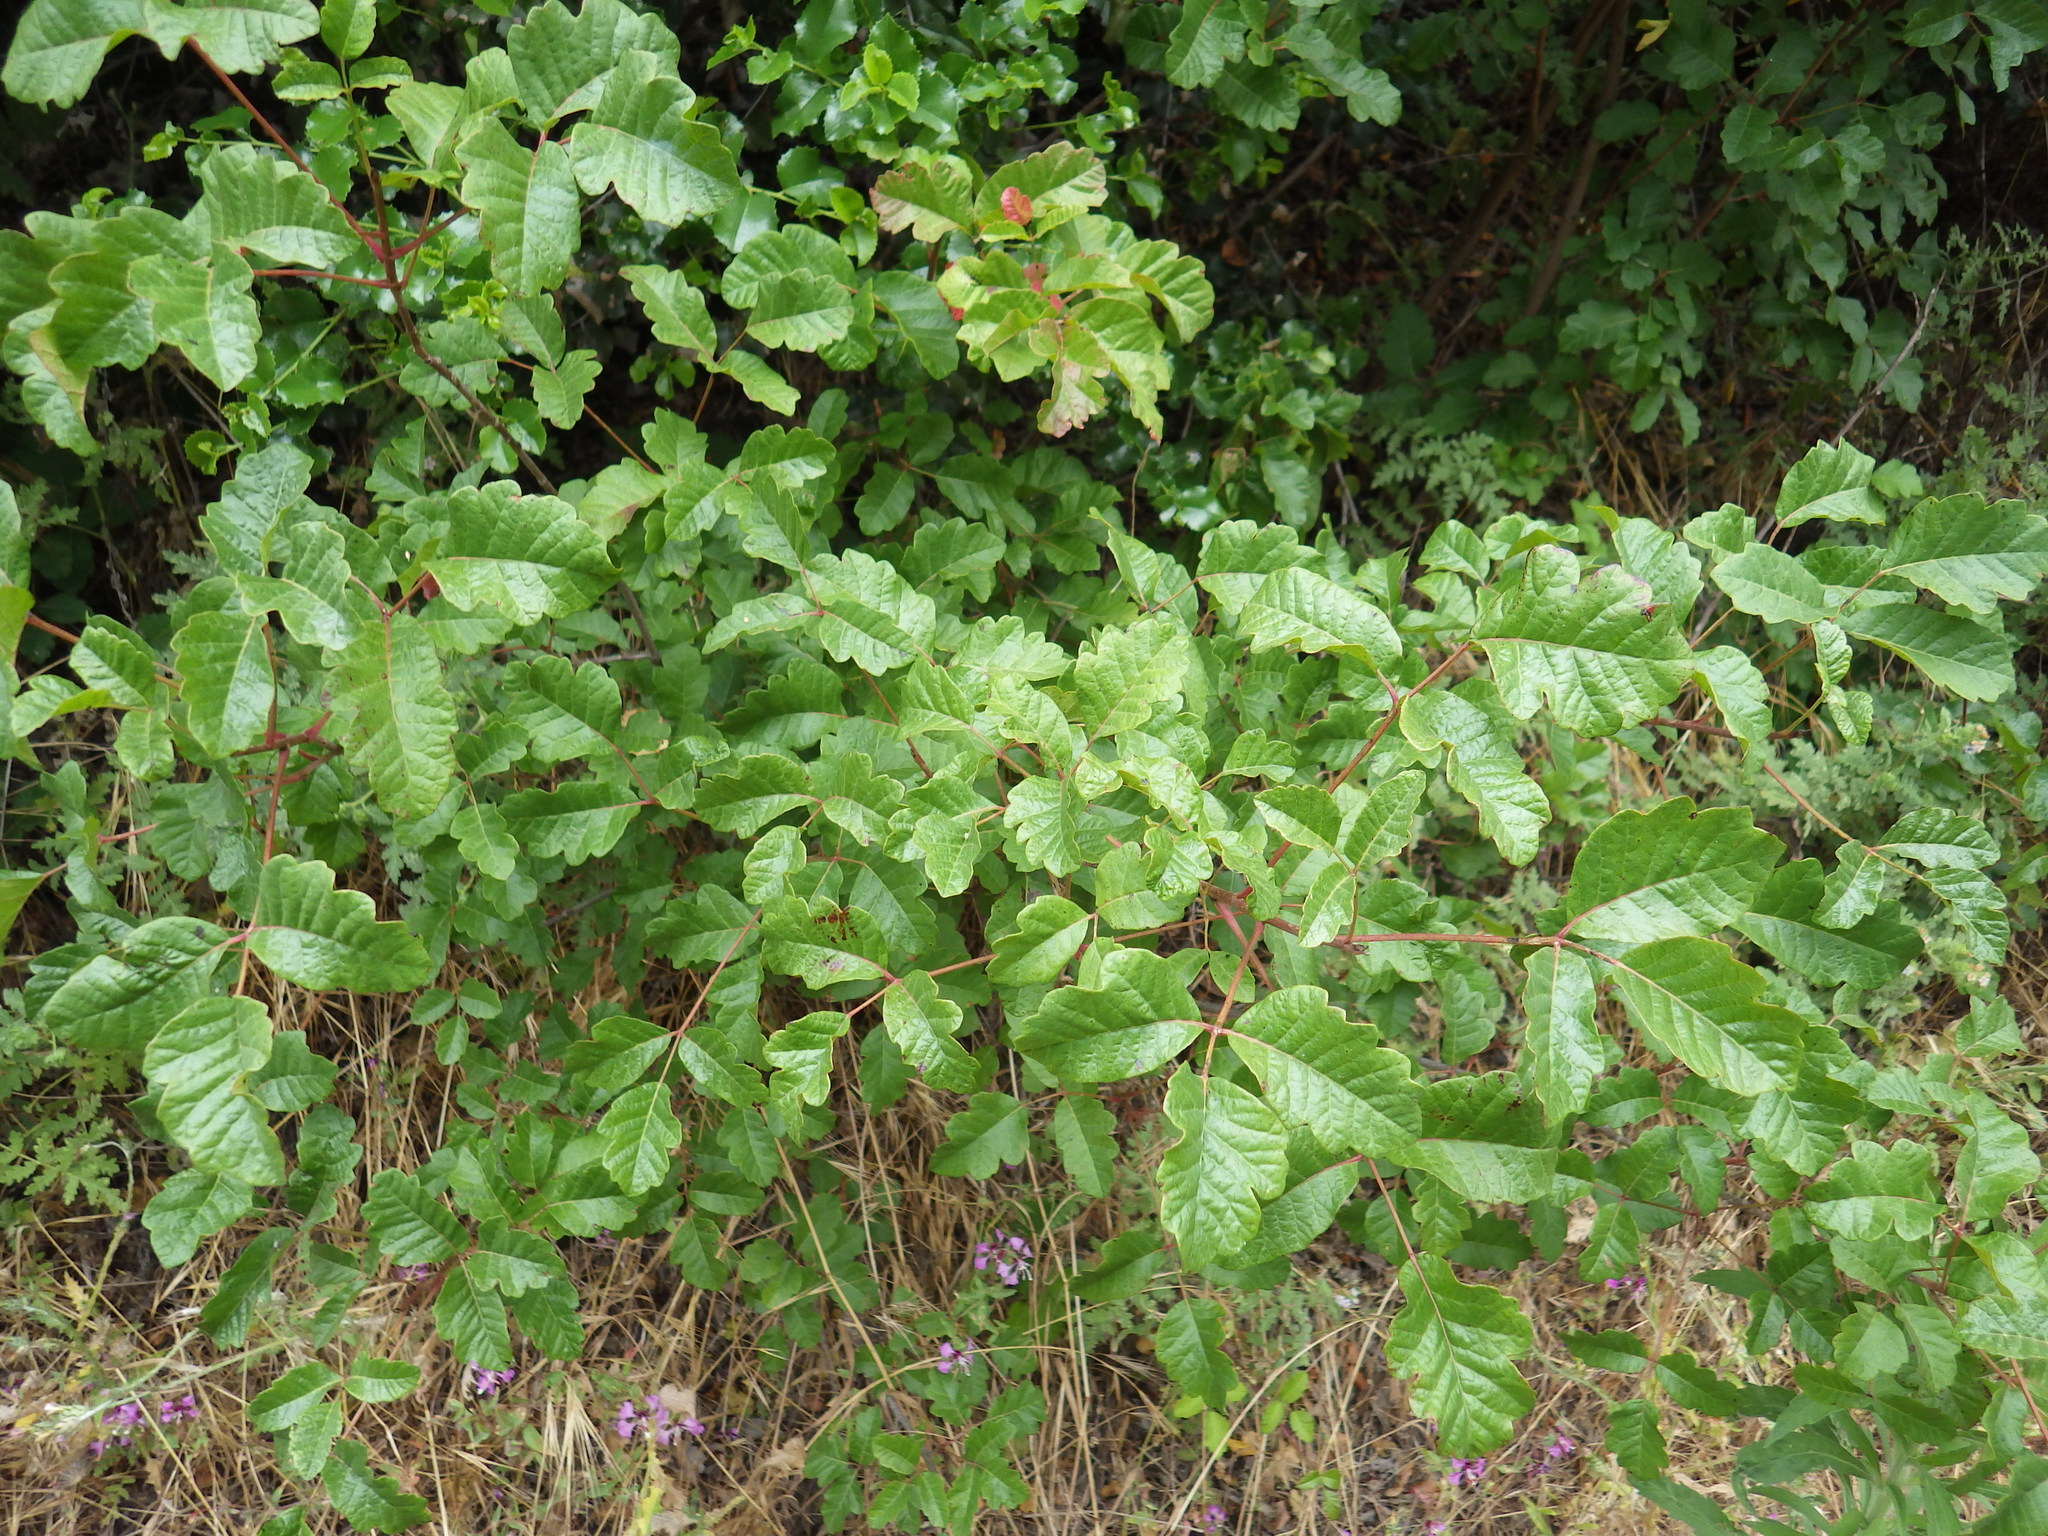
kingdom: Plantae
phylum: Tracheophyta
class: Magnoliopsida
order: Sapindales
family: Anacardiaceae
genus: Toxicodendron
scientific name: Toxicodendron diversilobum
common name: Pacific poison-oak
